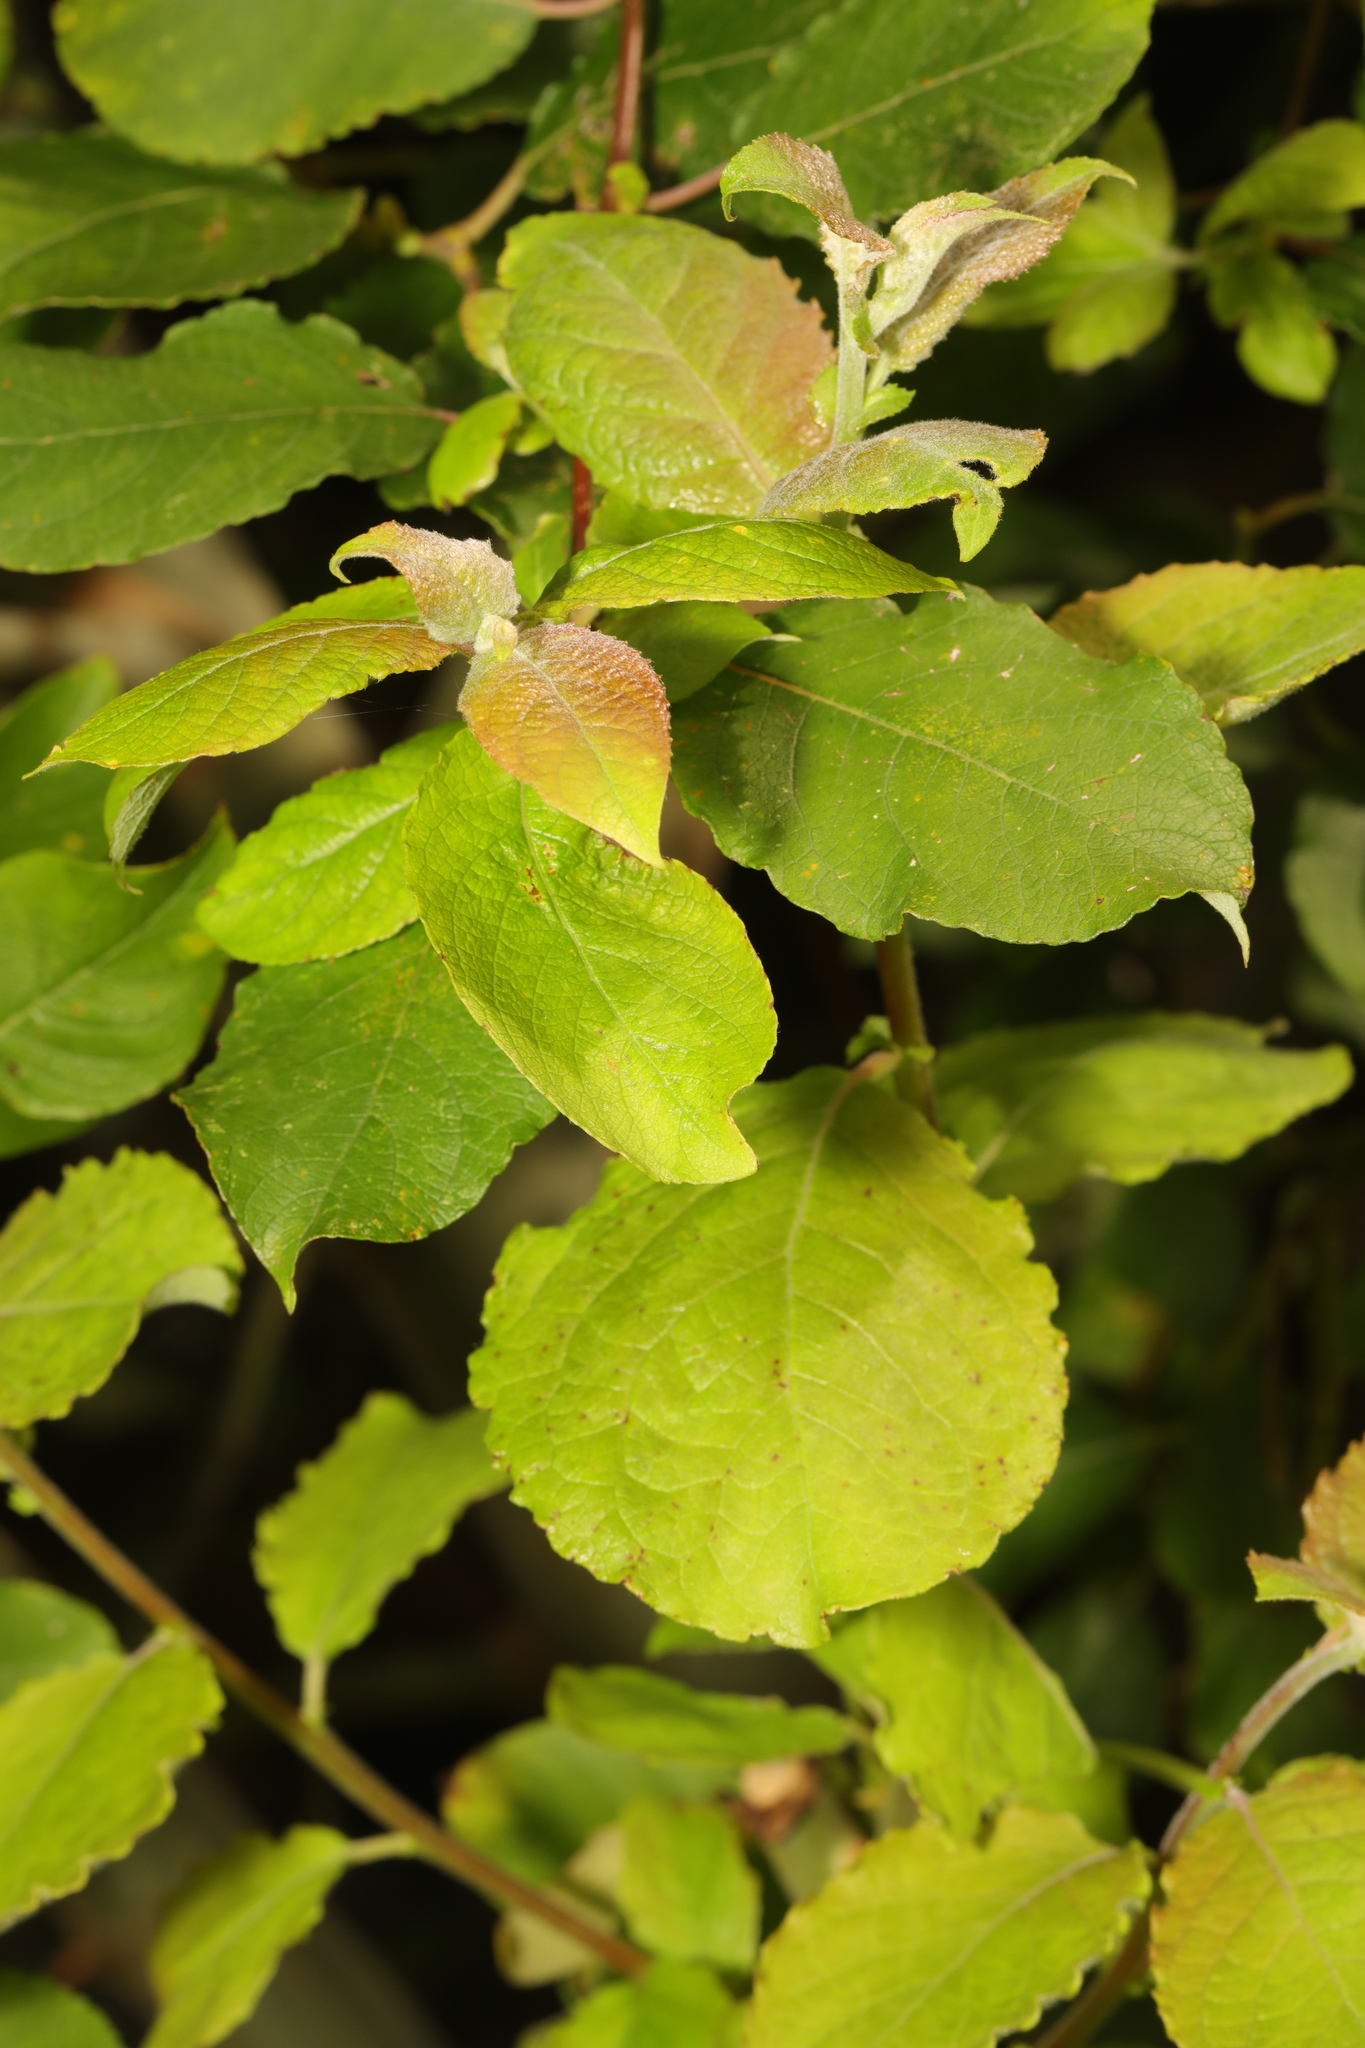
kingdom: Plantae
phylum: Tracheophyta
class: Magnoliopsida
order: Malpighiales
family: Salicaceae
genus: Salix
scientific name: Salix caprea
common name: Goat willow
